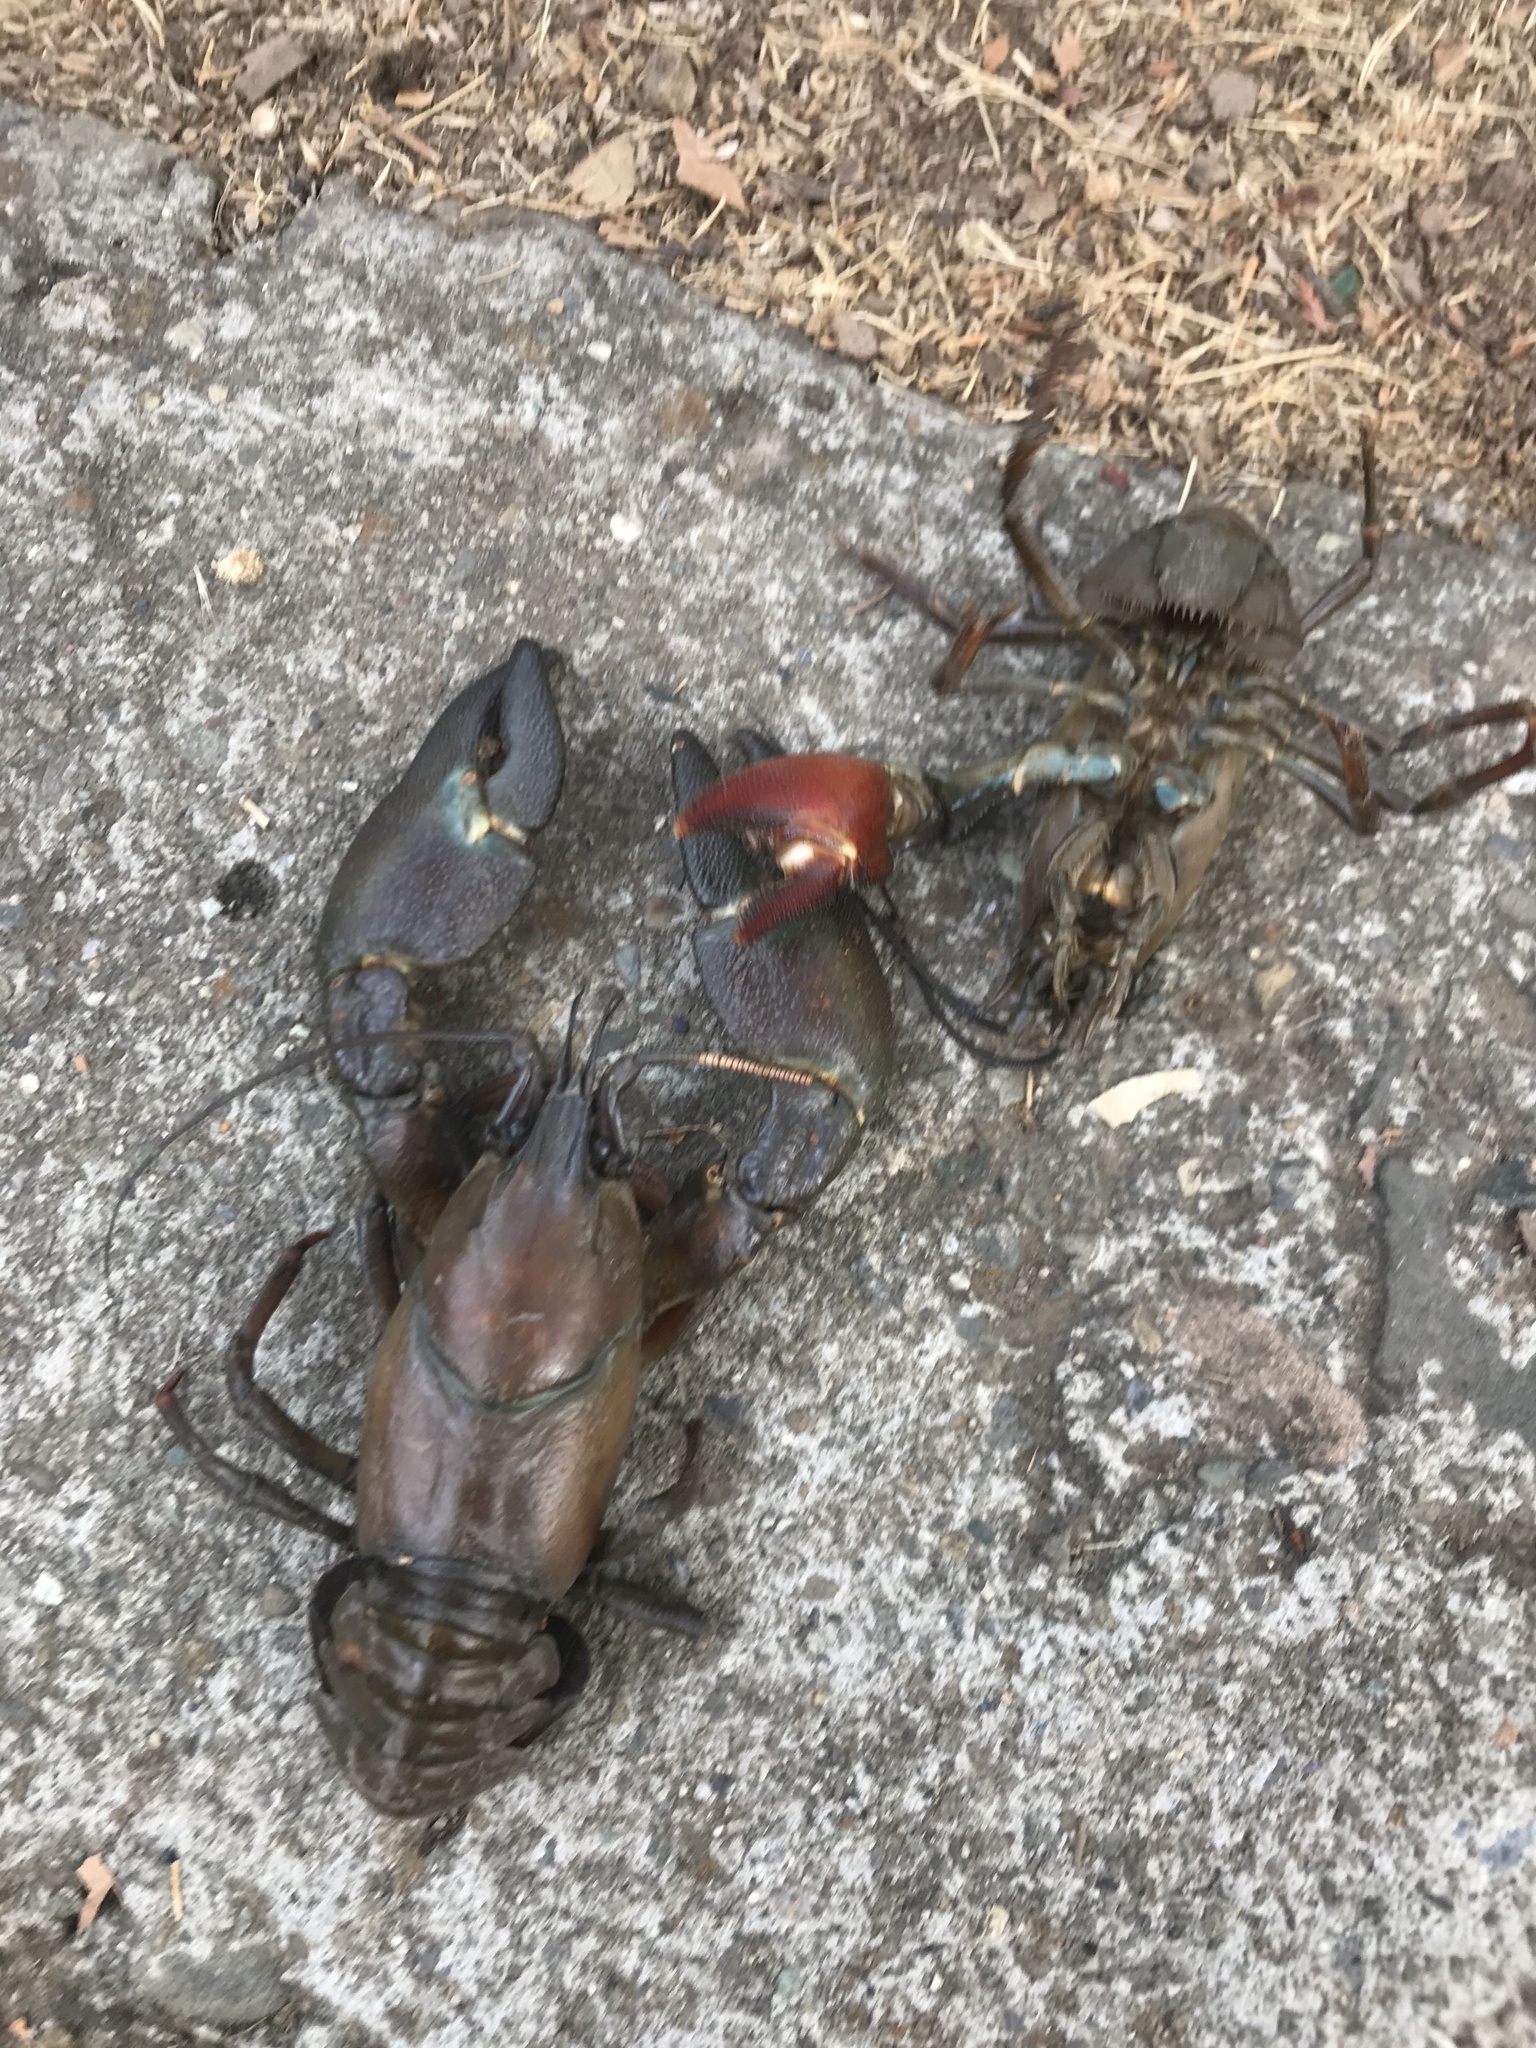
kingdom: Animalia
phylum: Arthropoda
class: Malacostraca
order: Decapoda
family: Astacidae
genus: Pacifastacus
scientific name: Pacifastacus leniusculus
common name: Signal crayfish
